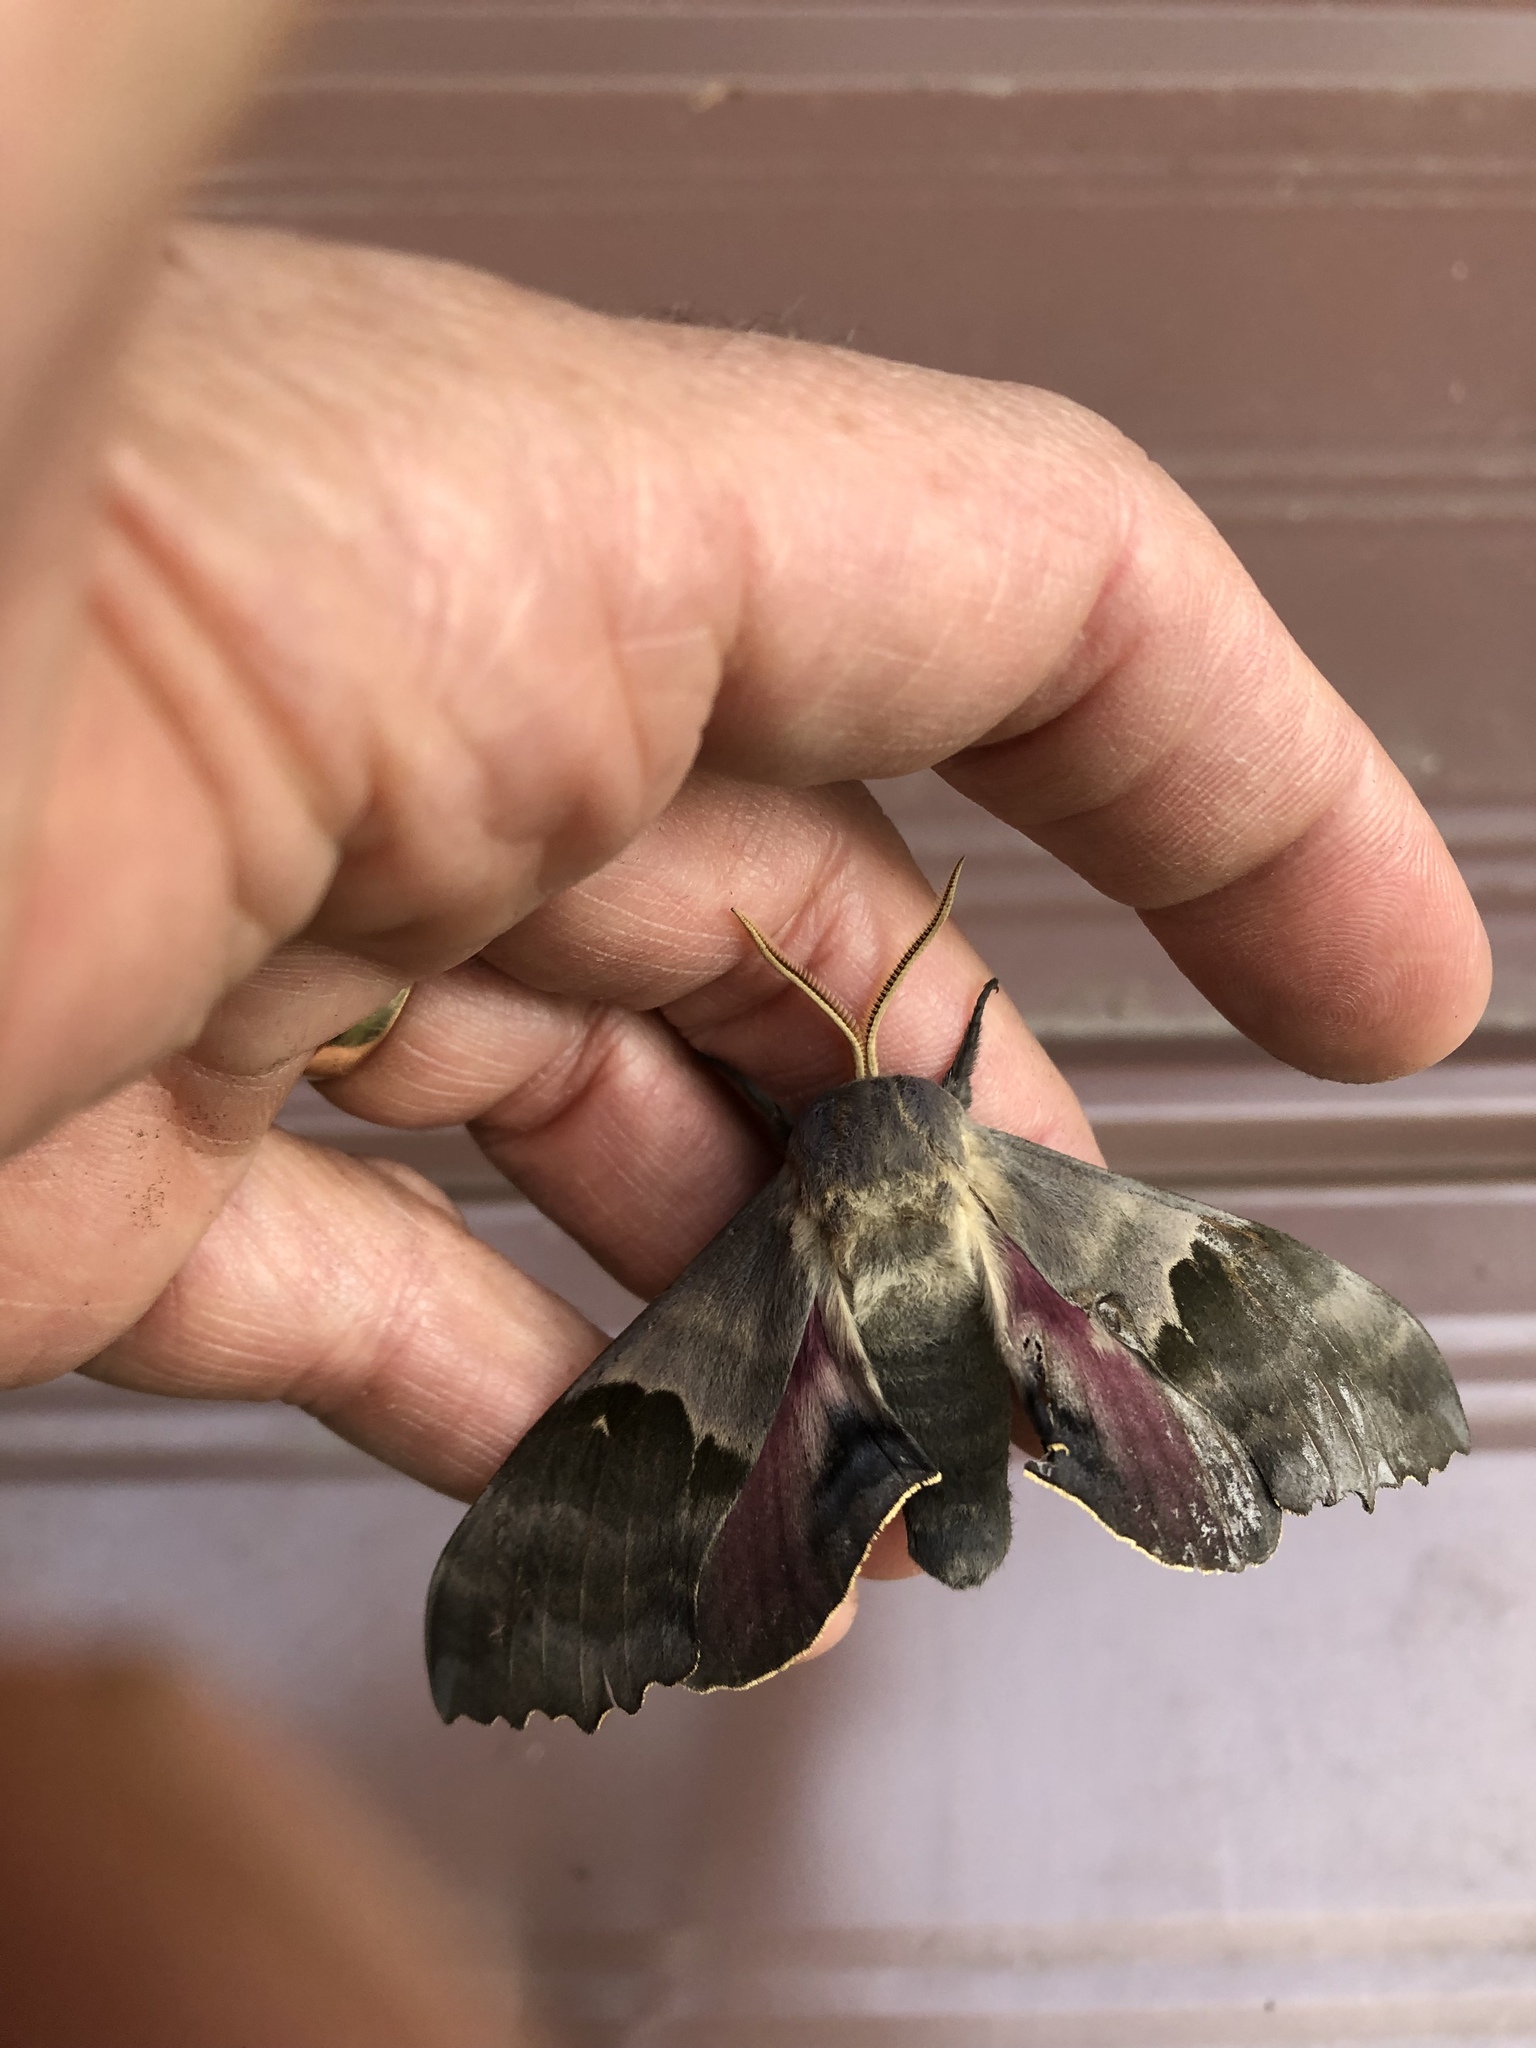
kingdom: Animalia
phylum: Arthropoda
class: Insecta
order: Lepidoptera
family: Sphingidae
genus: Pachysphinx
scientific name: Pachysphinx modesta
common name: Big poplar sphinx
